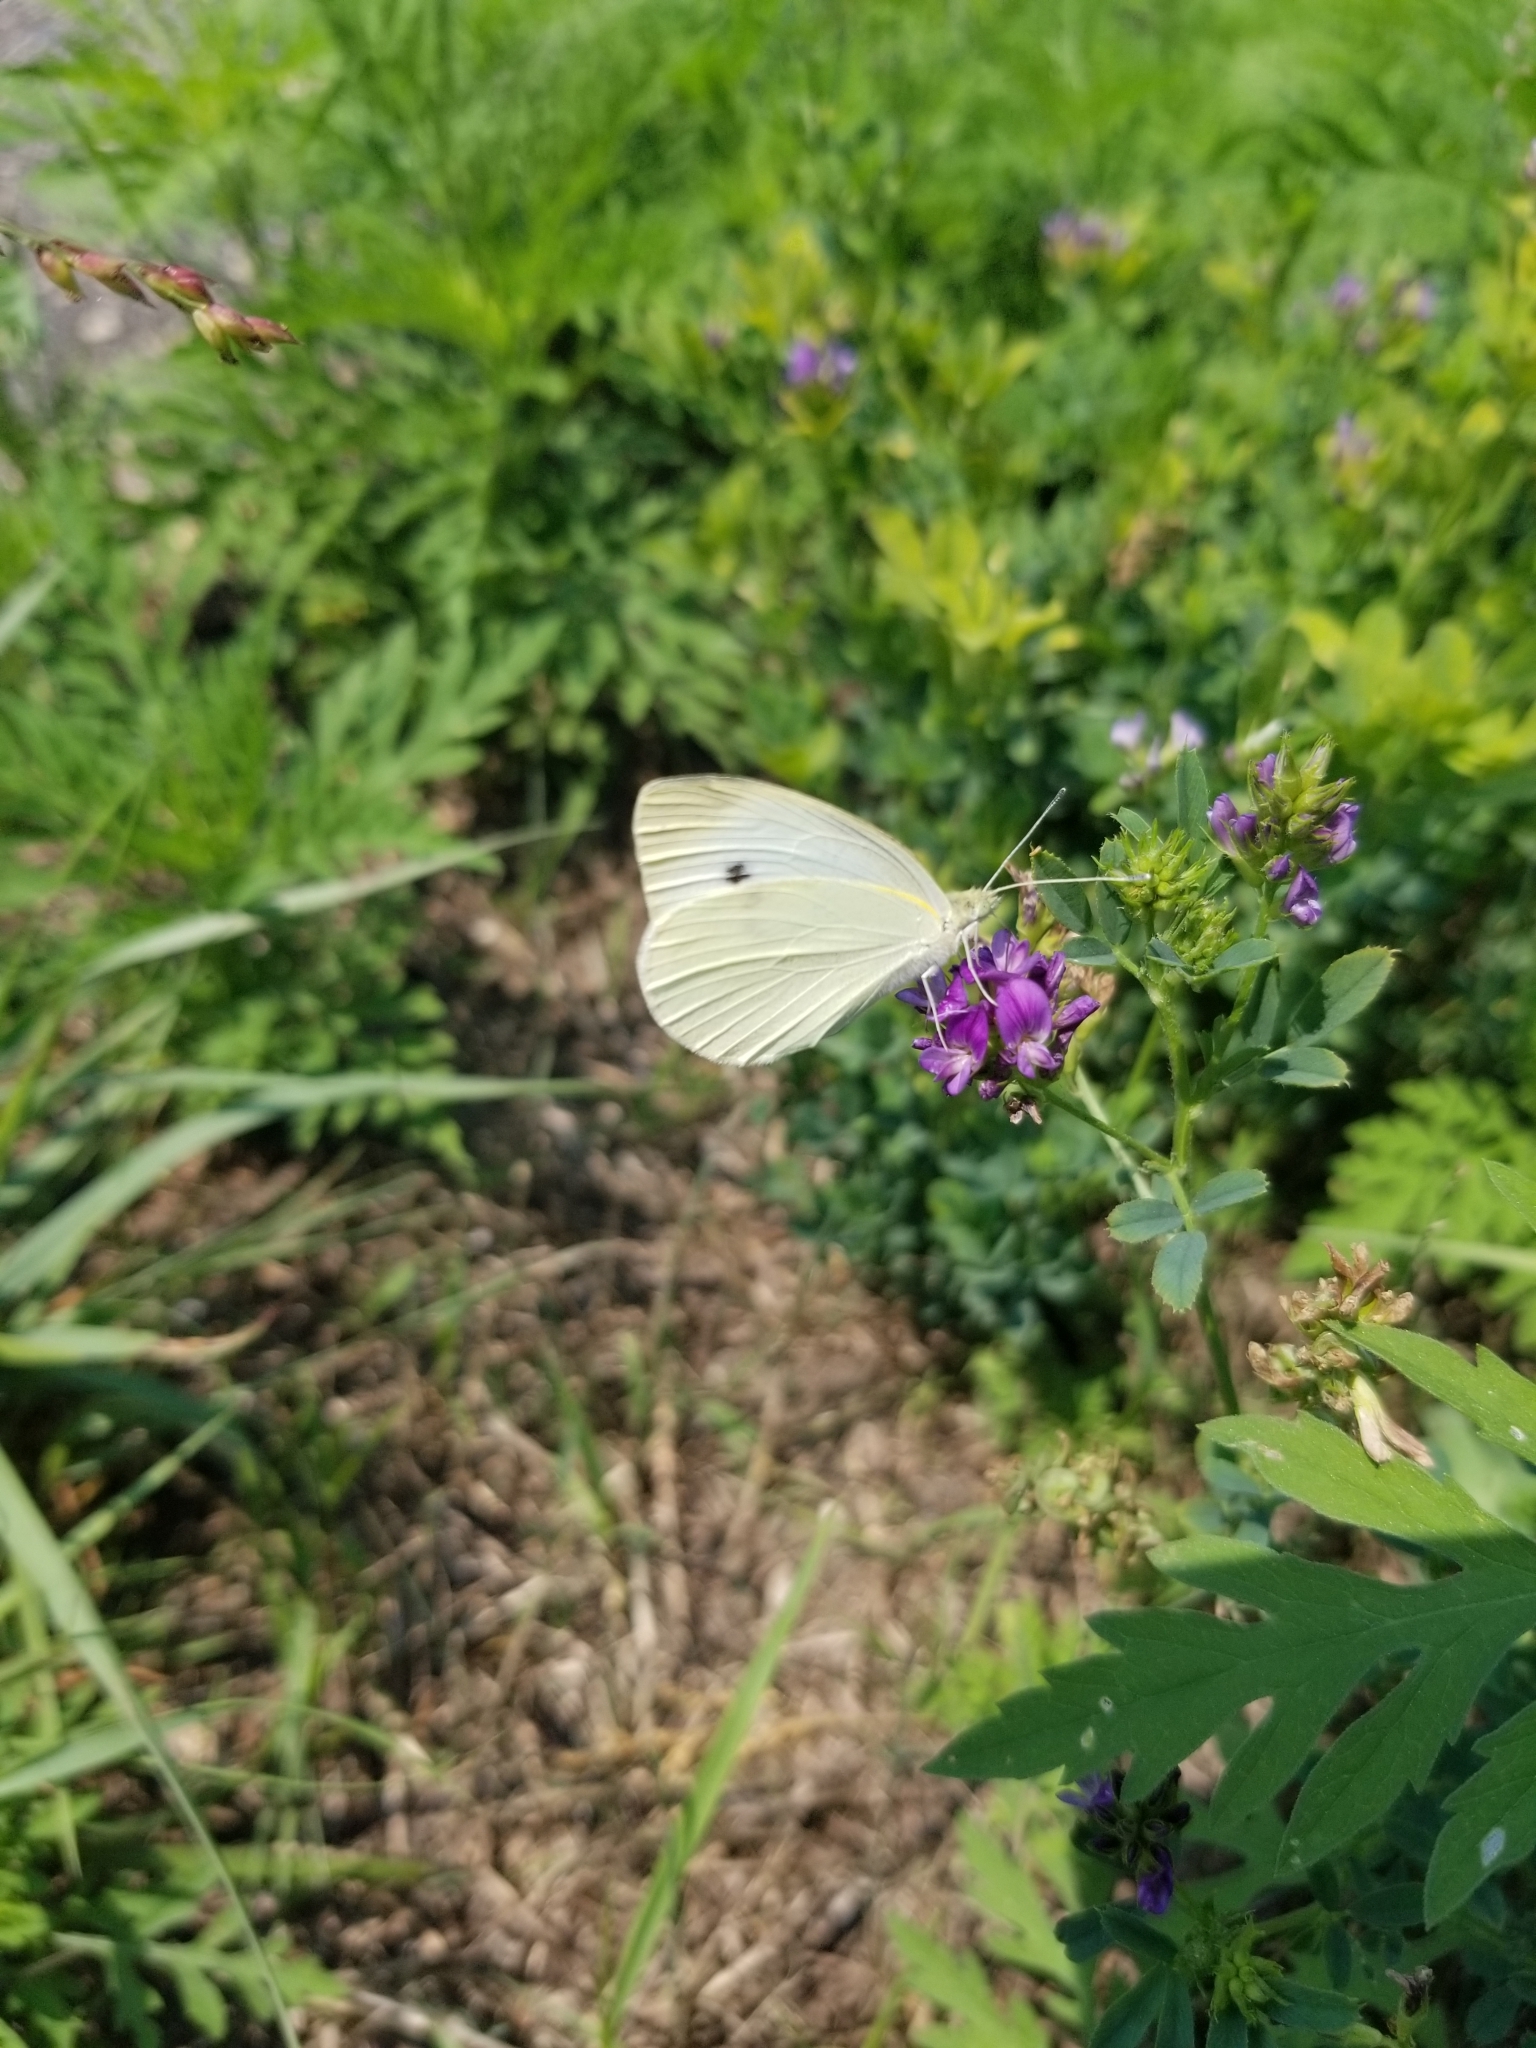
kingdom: Animalia
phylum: Arthropoda
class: Insecta
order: Lepidoptera
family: Pieridae
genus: Pieris
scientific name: Pieris rapae
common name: Small white
